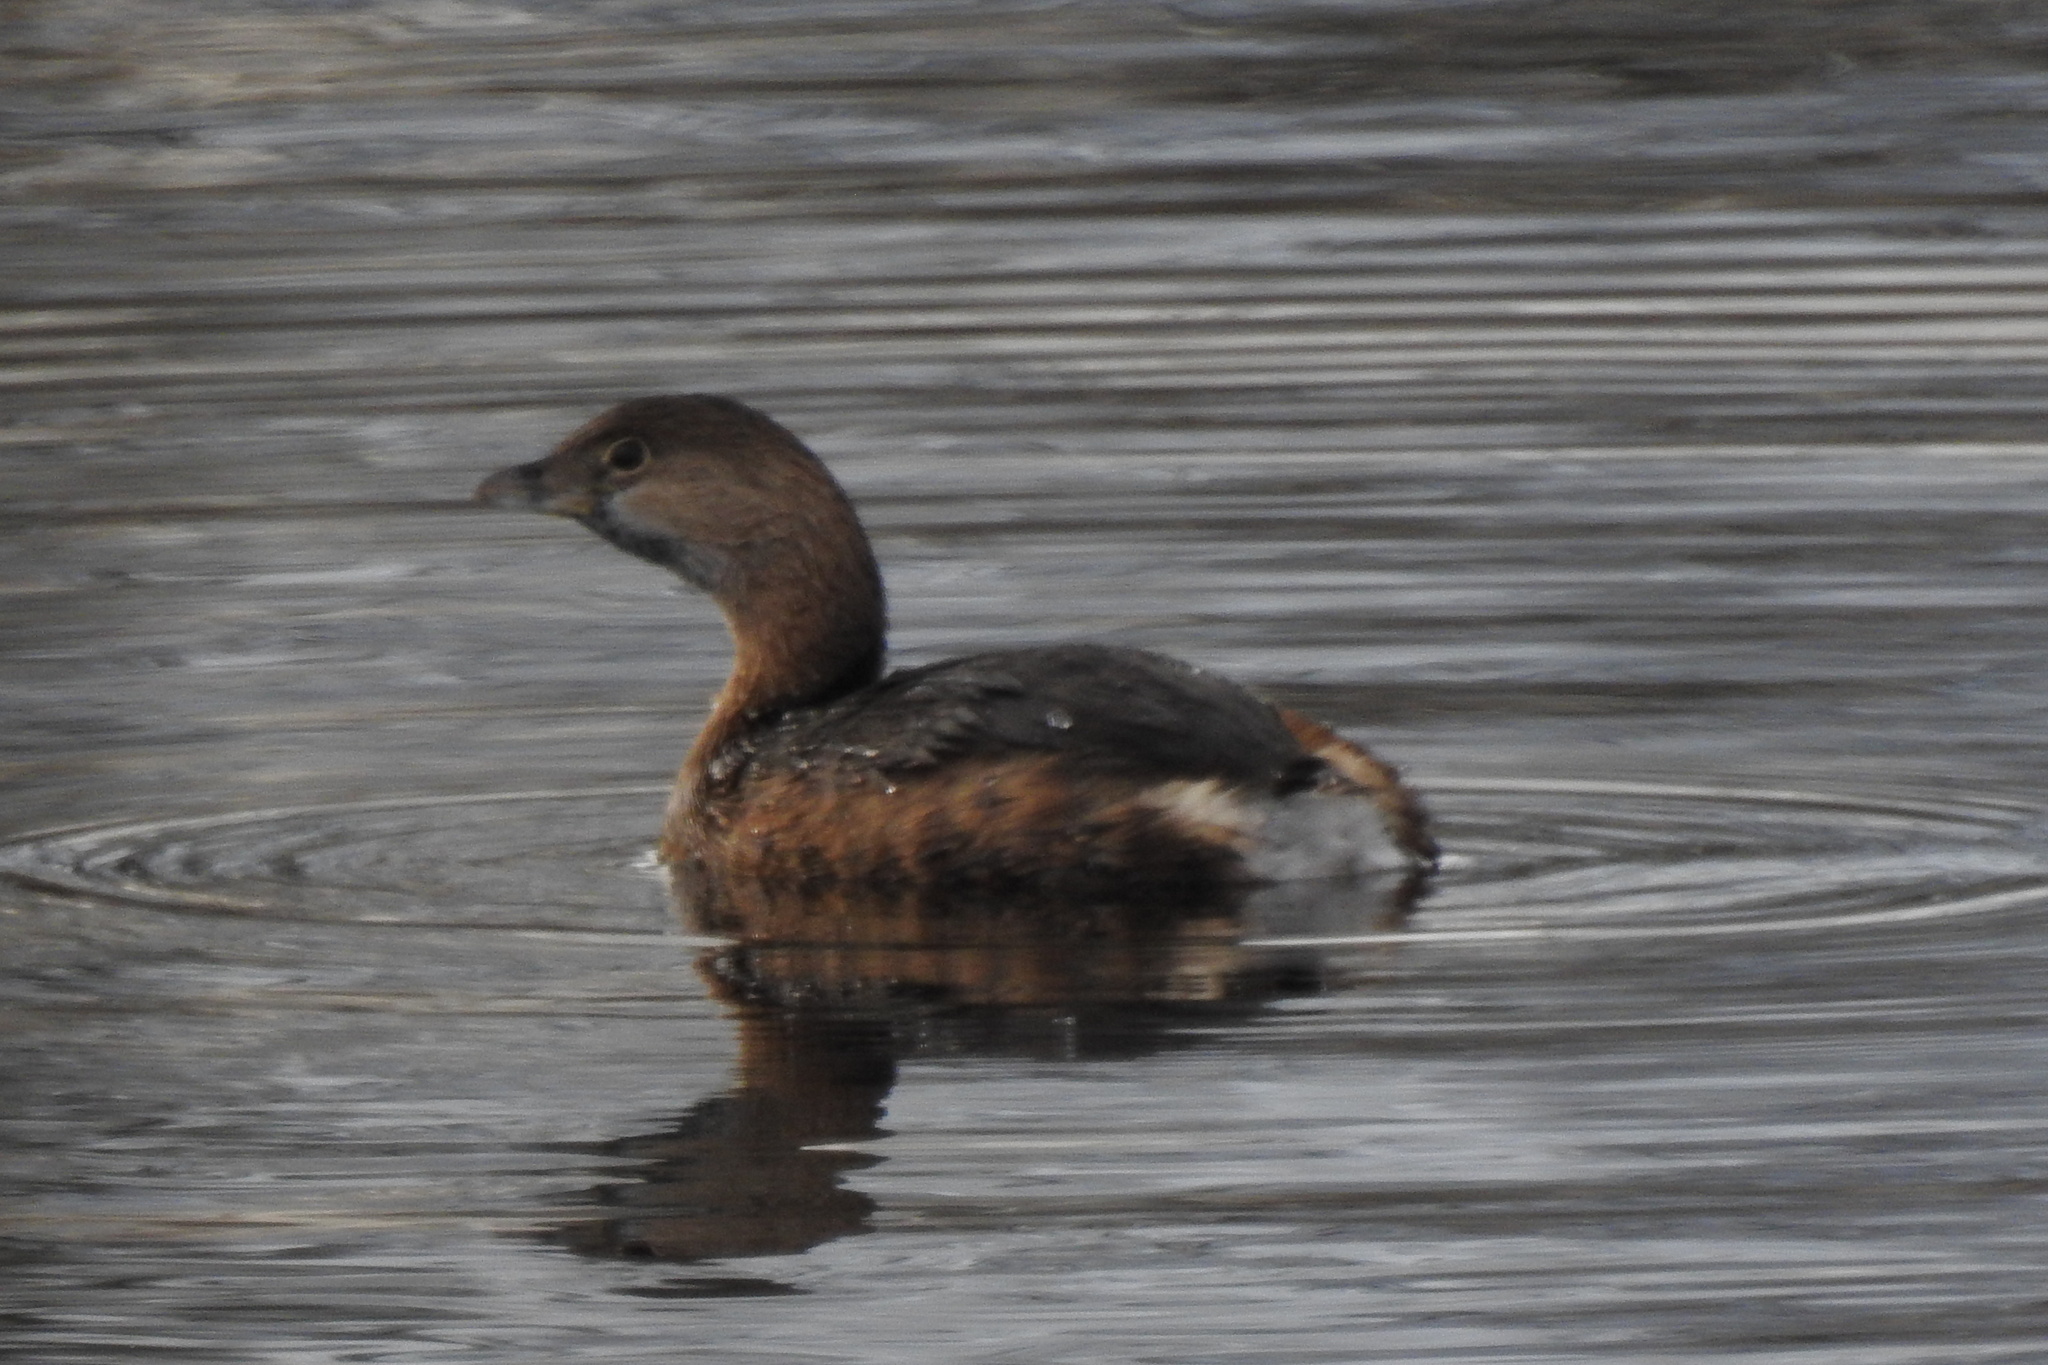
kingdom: Animalia
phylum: Chordata
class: Aves
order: Podicipediformes
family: Podicipedidae
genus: Podilymbus
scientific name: Podilymbus podiceps
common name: Pied-billed grebe
